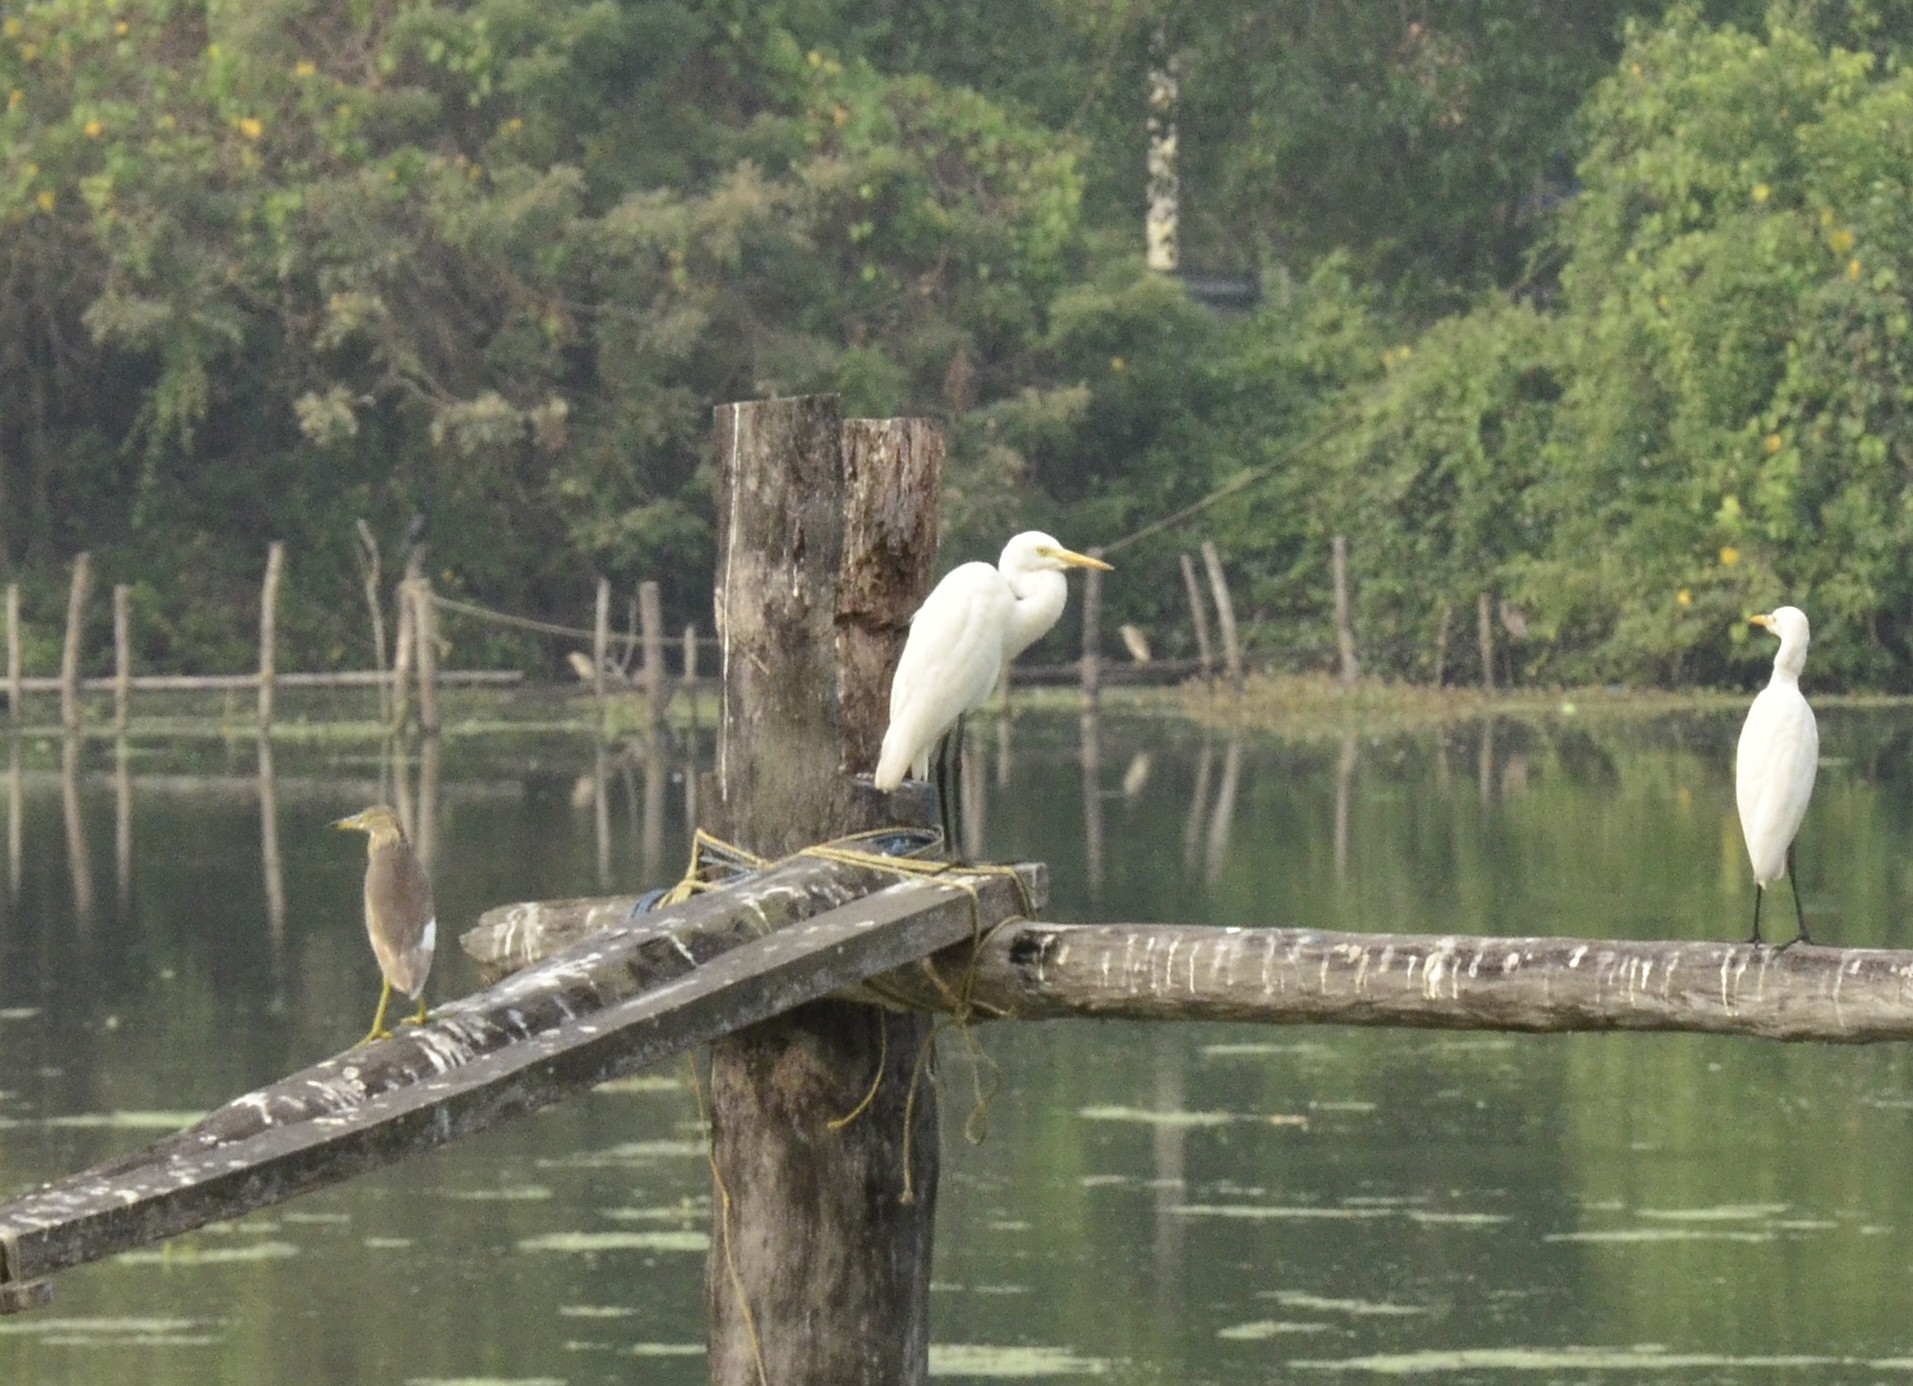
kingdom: Animalia
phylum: Chordata
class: Aves
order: Pelecaniformes
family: Ardeidae
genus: Egretta
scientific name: Egretta intermedia
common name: Intermediate egret
